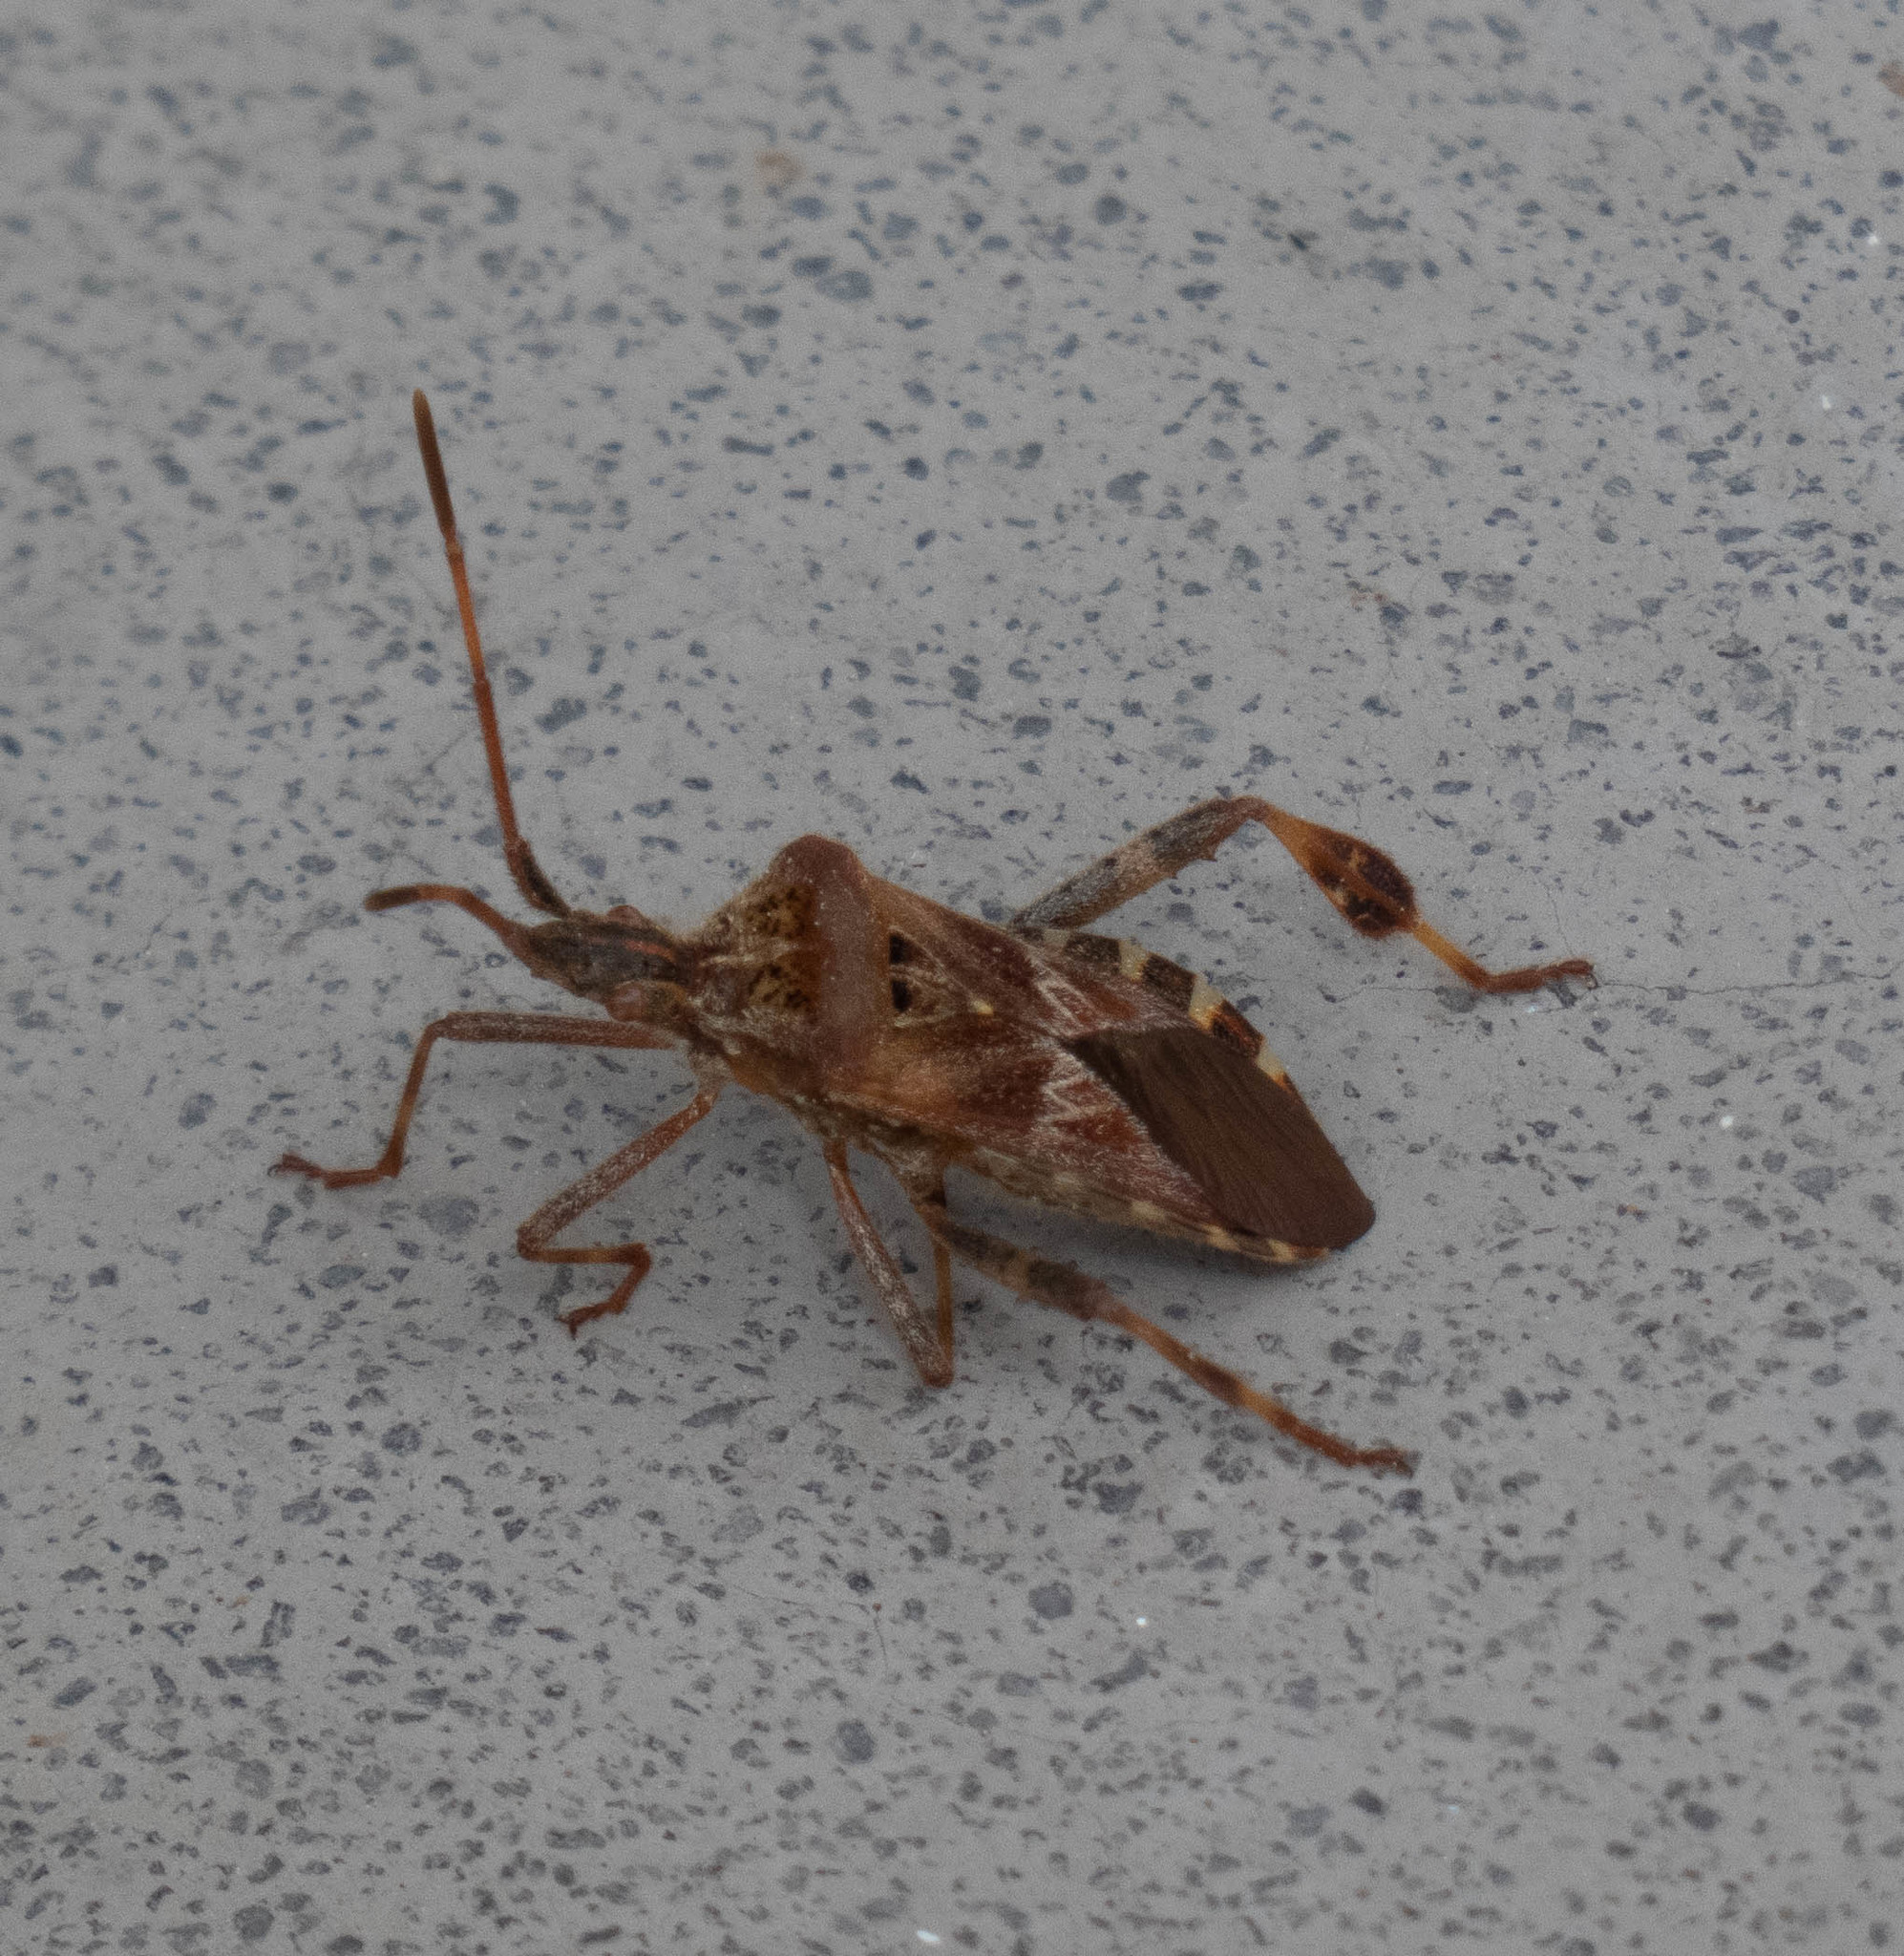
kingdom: Animalia
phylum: Arthropoda
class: Insecta
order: Hemiptera
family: Coreidae
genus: Leptoglossus
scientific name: Leptoglossus occidentalis
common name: Western conifer-seed bug
